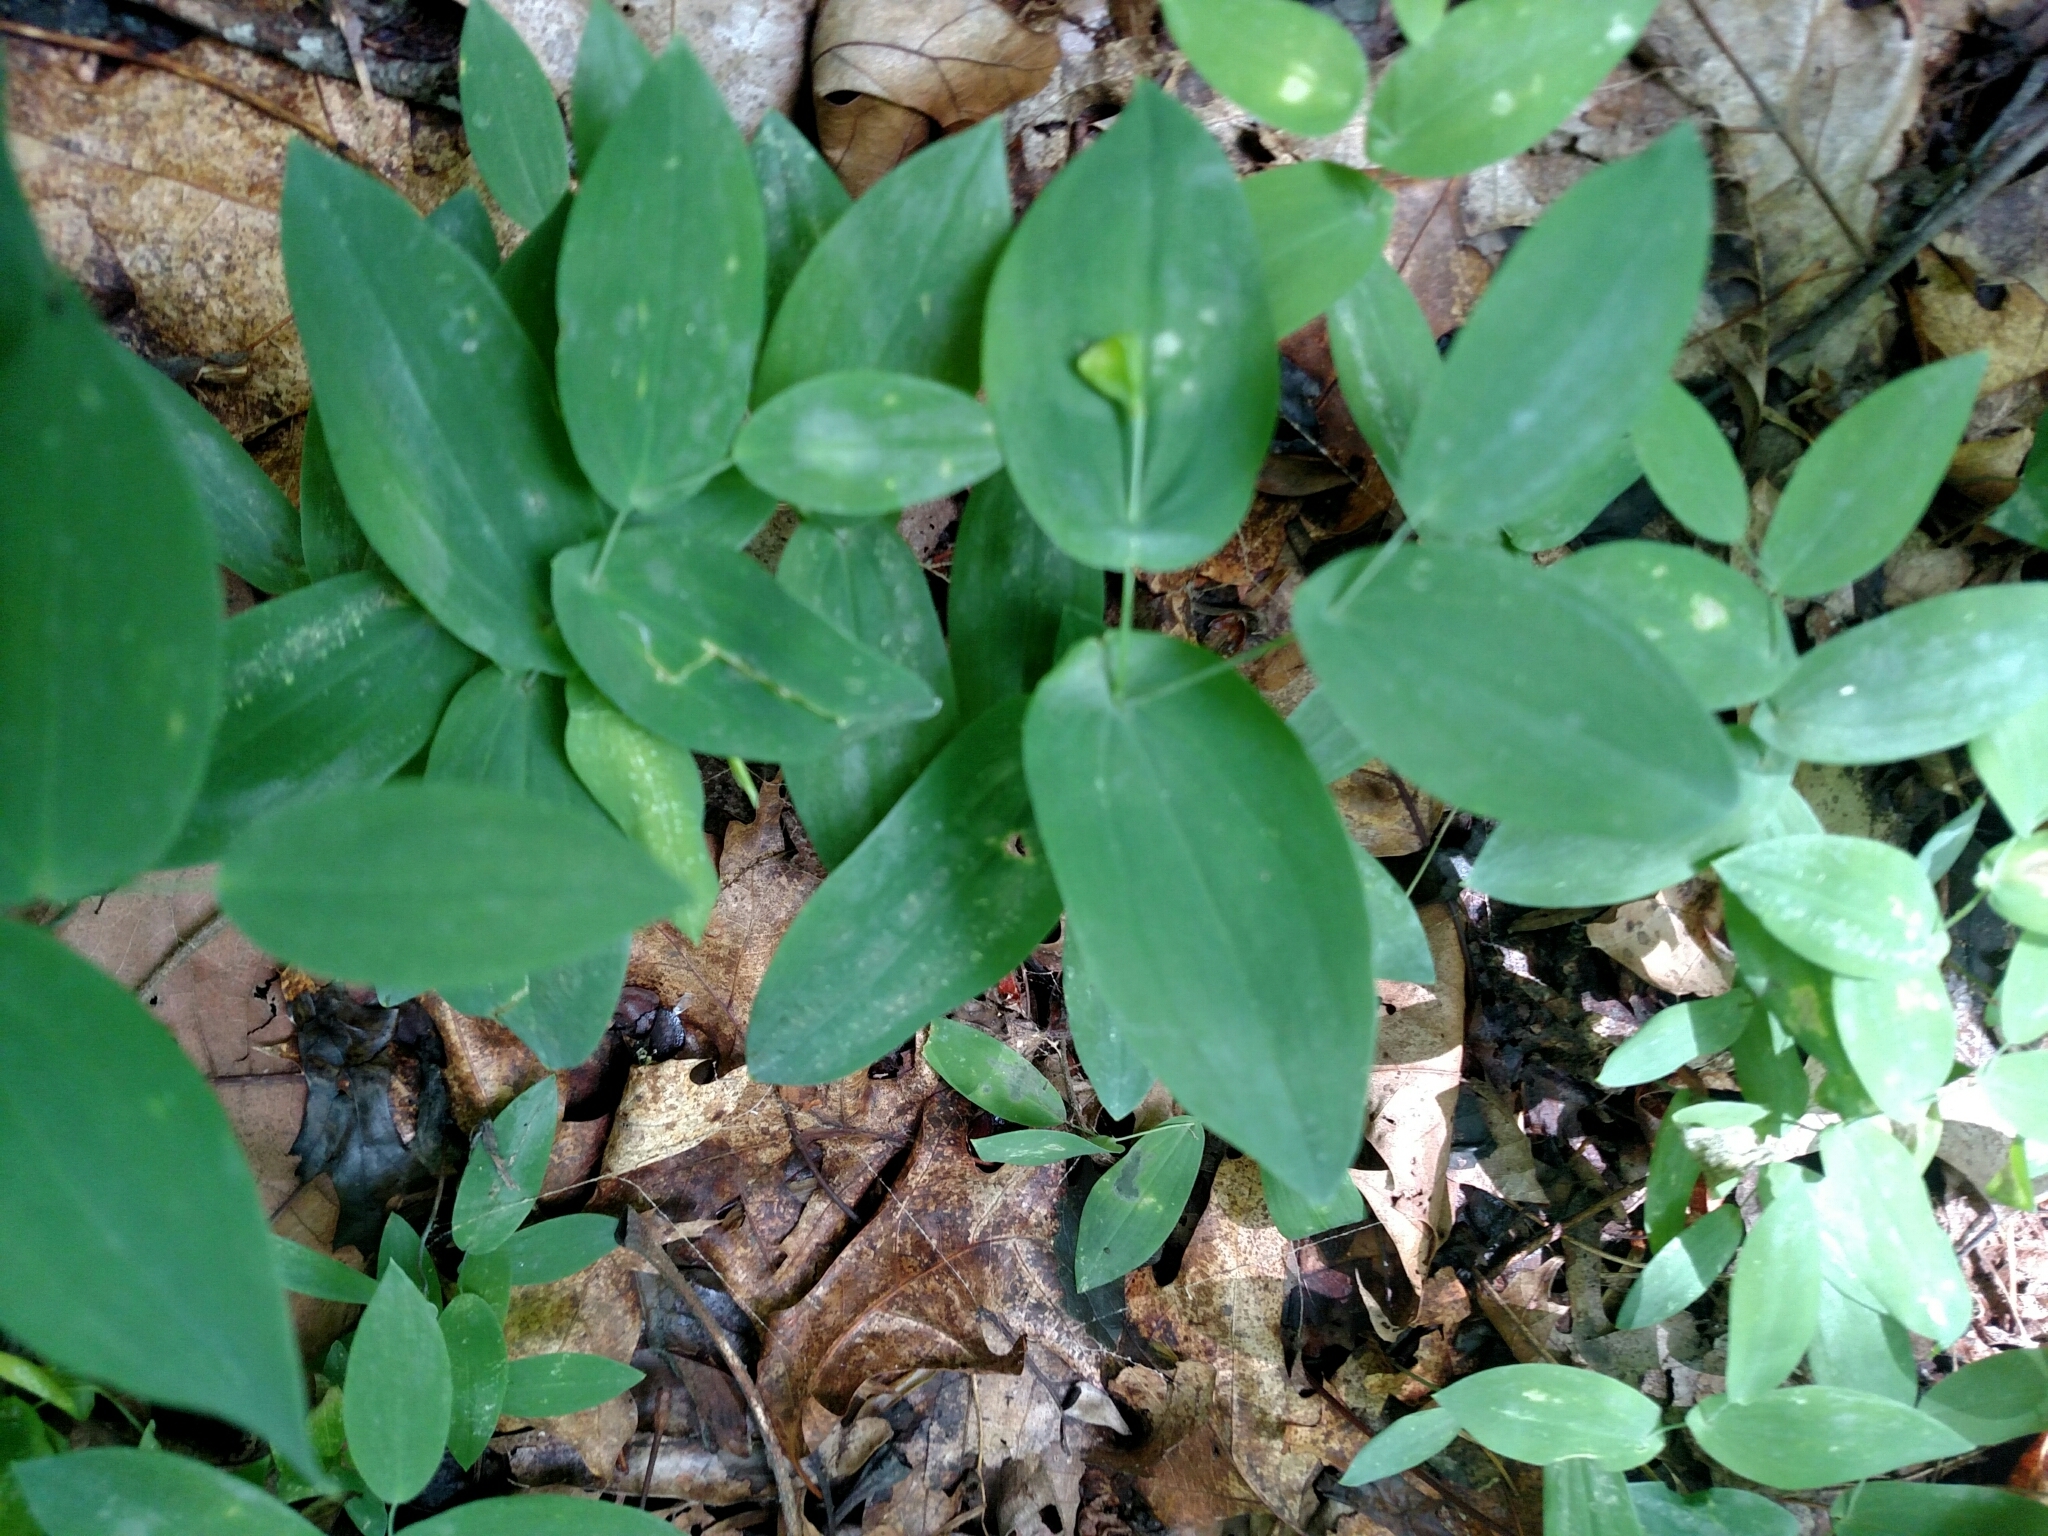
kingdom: Plantae
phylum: Tracheophyta
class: Liliopsida
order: Liliales
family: Colchicaceae
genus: Uvularia
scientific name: Uvularia perfoliata
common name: Perfoliate bellwort
